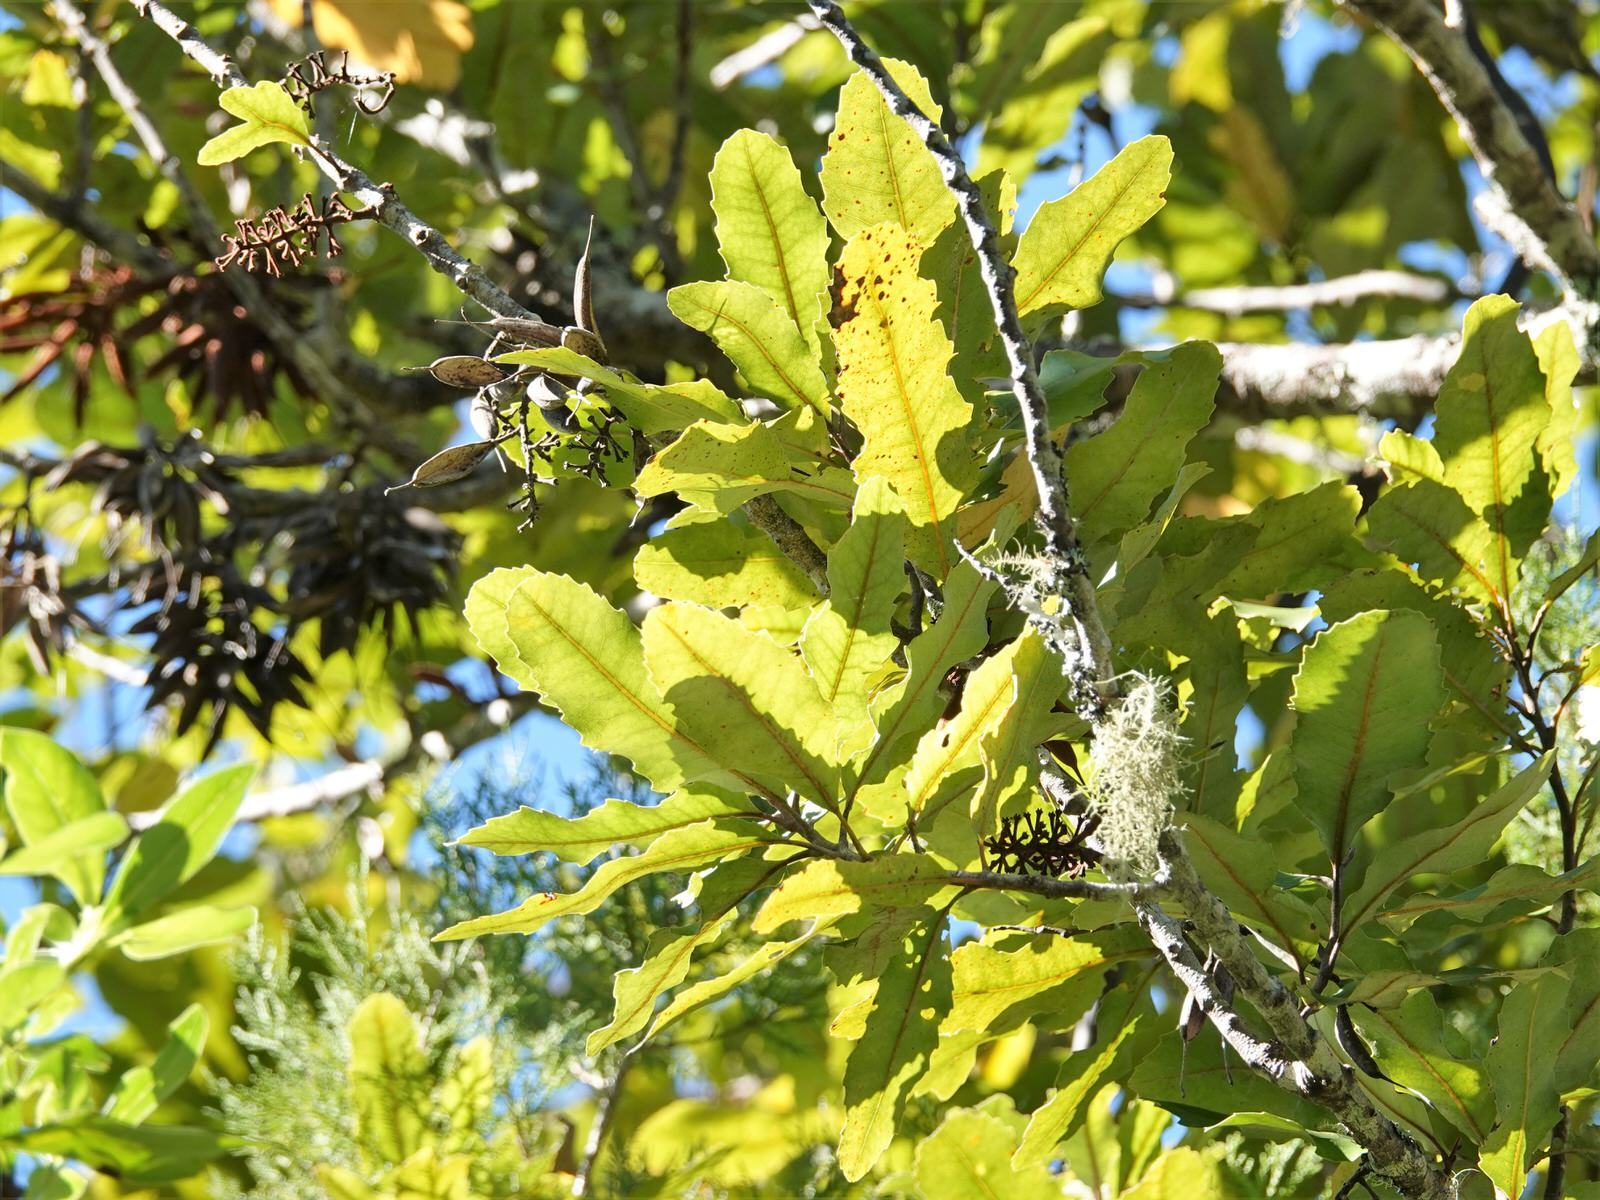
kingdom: Plantae
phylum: Tracheophyta
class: Magnoliopsida
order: Proteales
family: Proteaceae
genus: Knightia
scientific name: Knightia excelsa
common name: New zealand-honeysuckle
